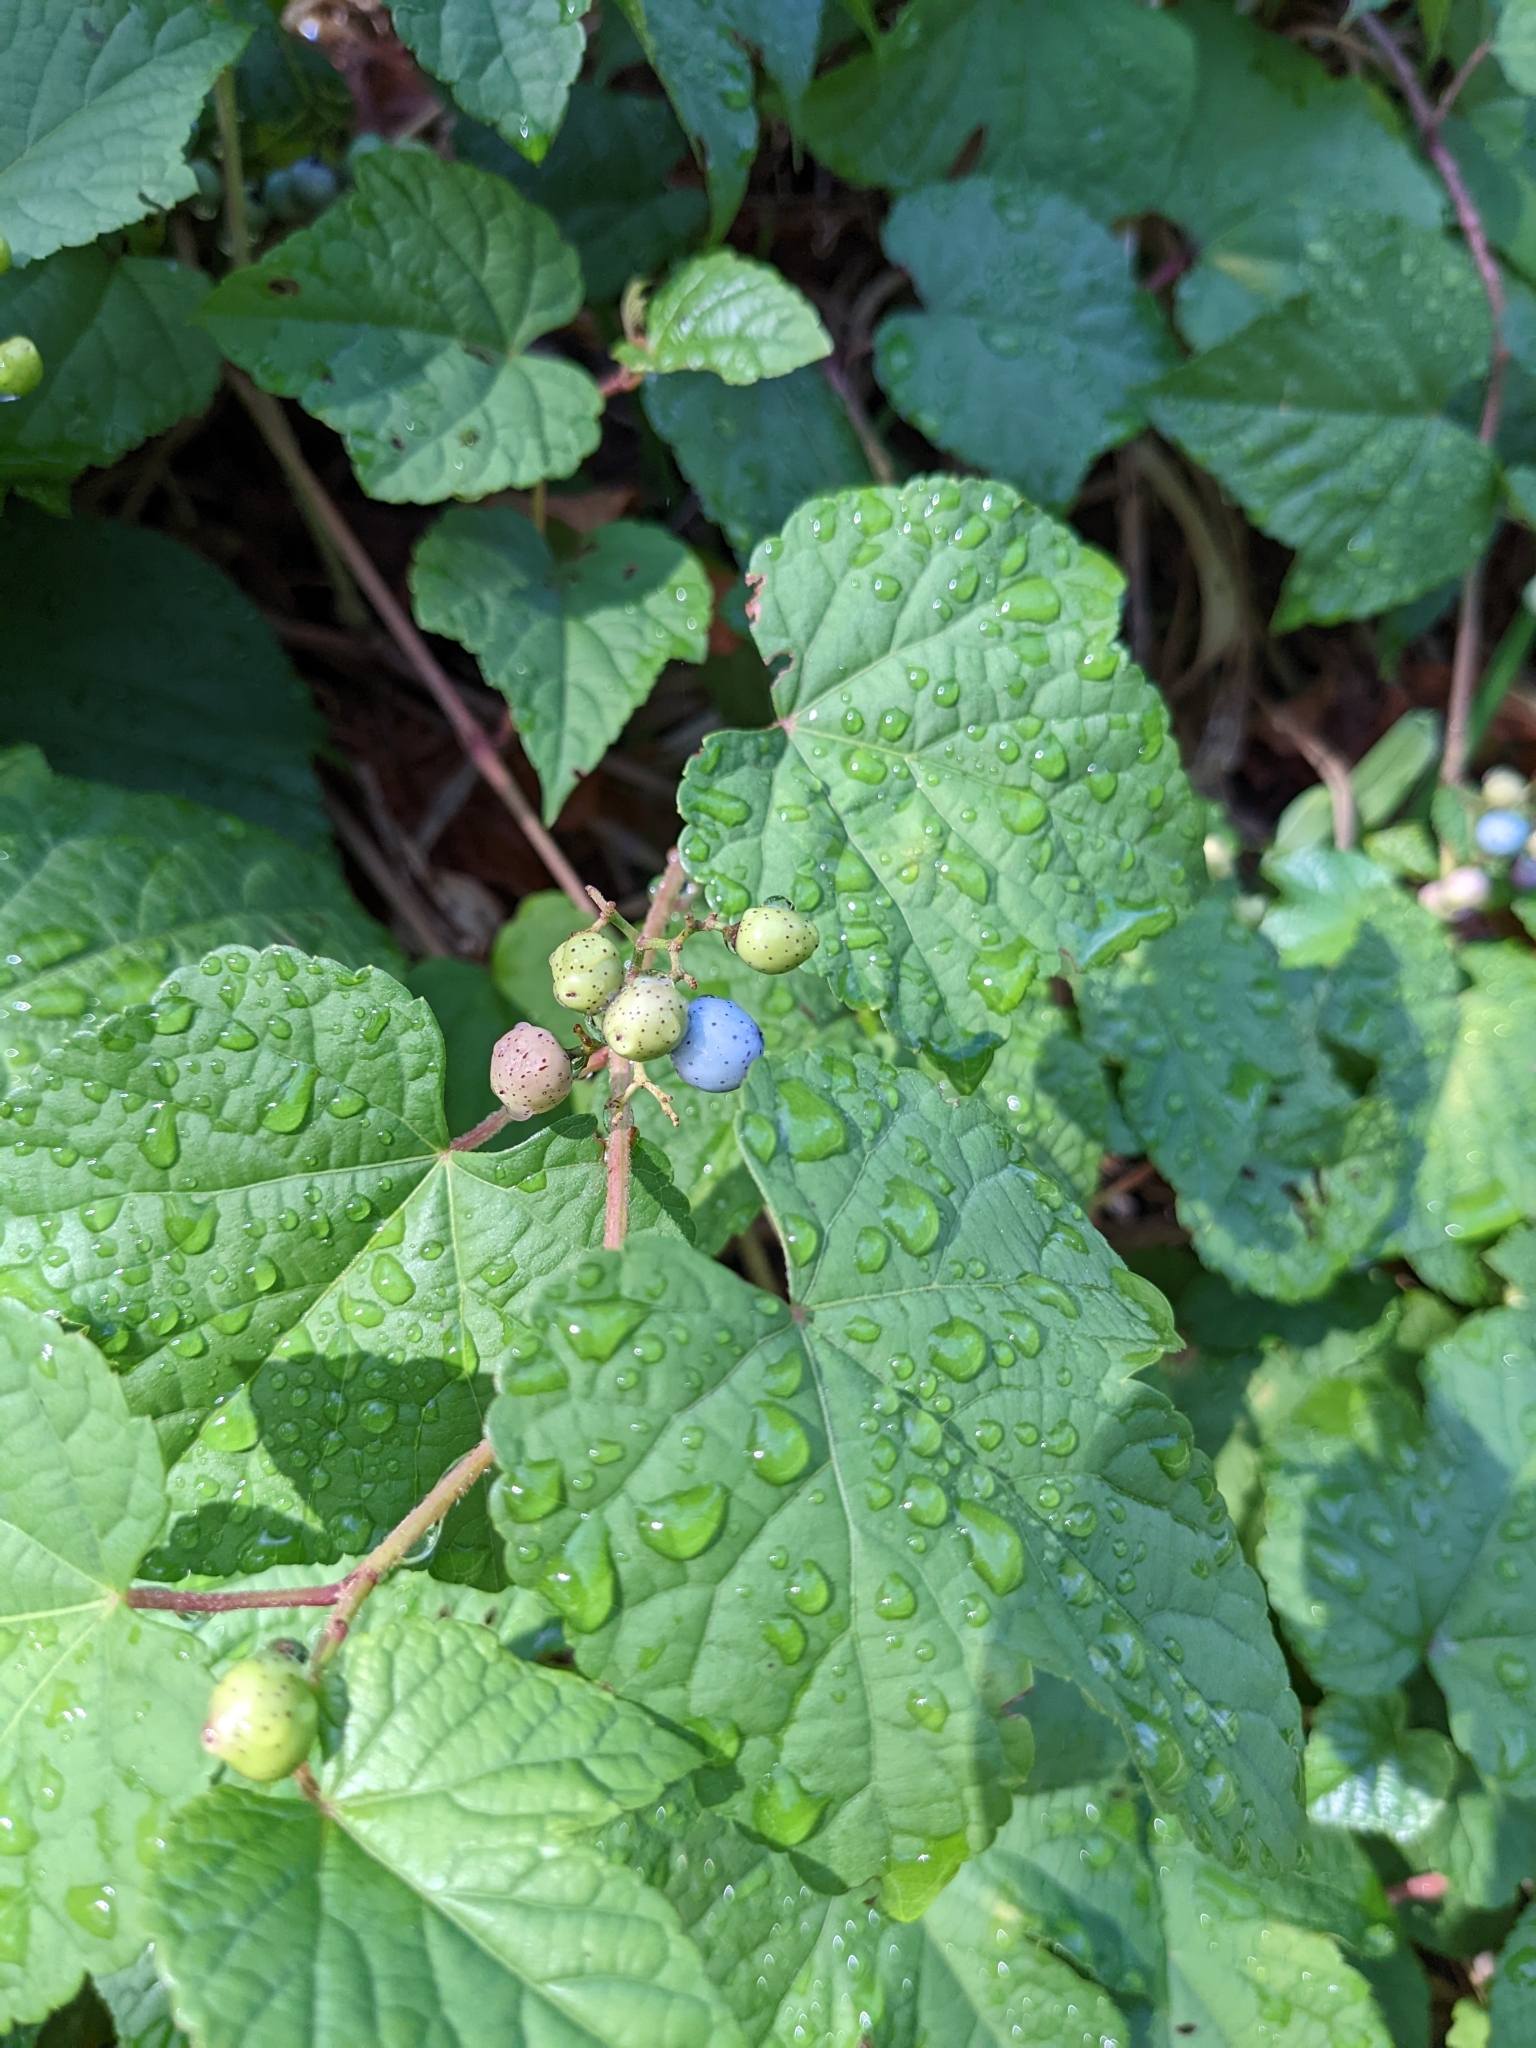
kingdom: Plantae
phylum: Tracheophyta
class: Magnoliopsida
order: Vitales
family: Vitaceae
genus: Ampelopsis
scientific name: Ampelopsis glandulosa
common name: Amur peppervine
